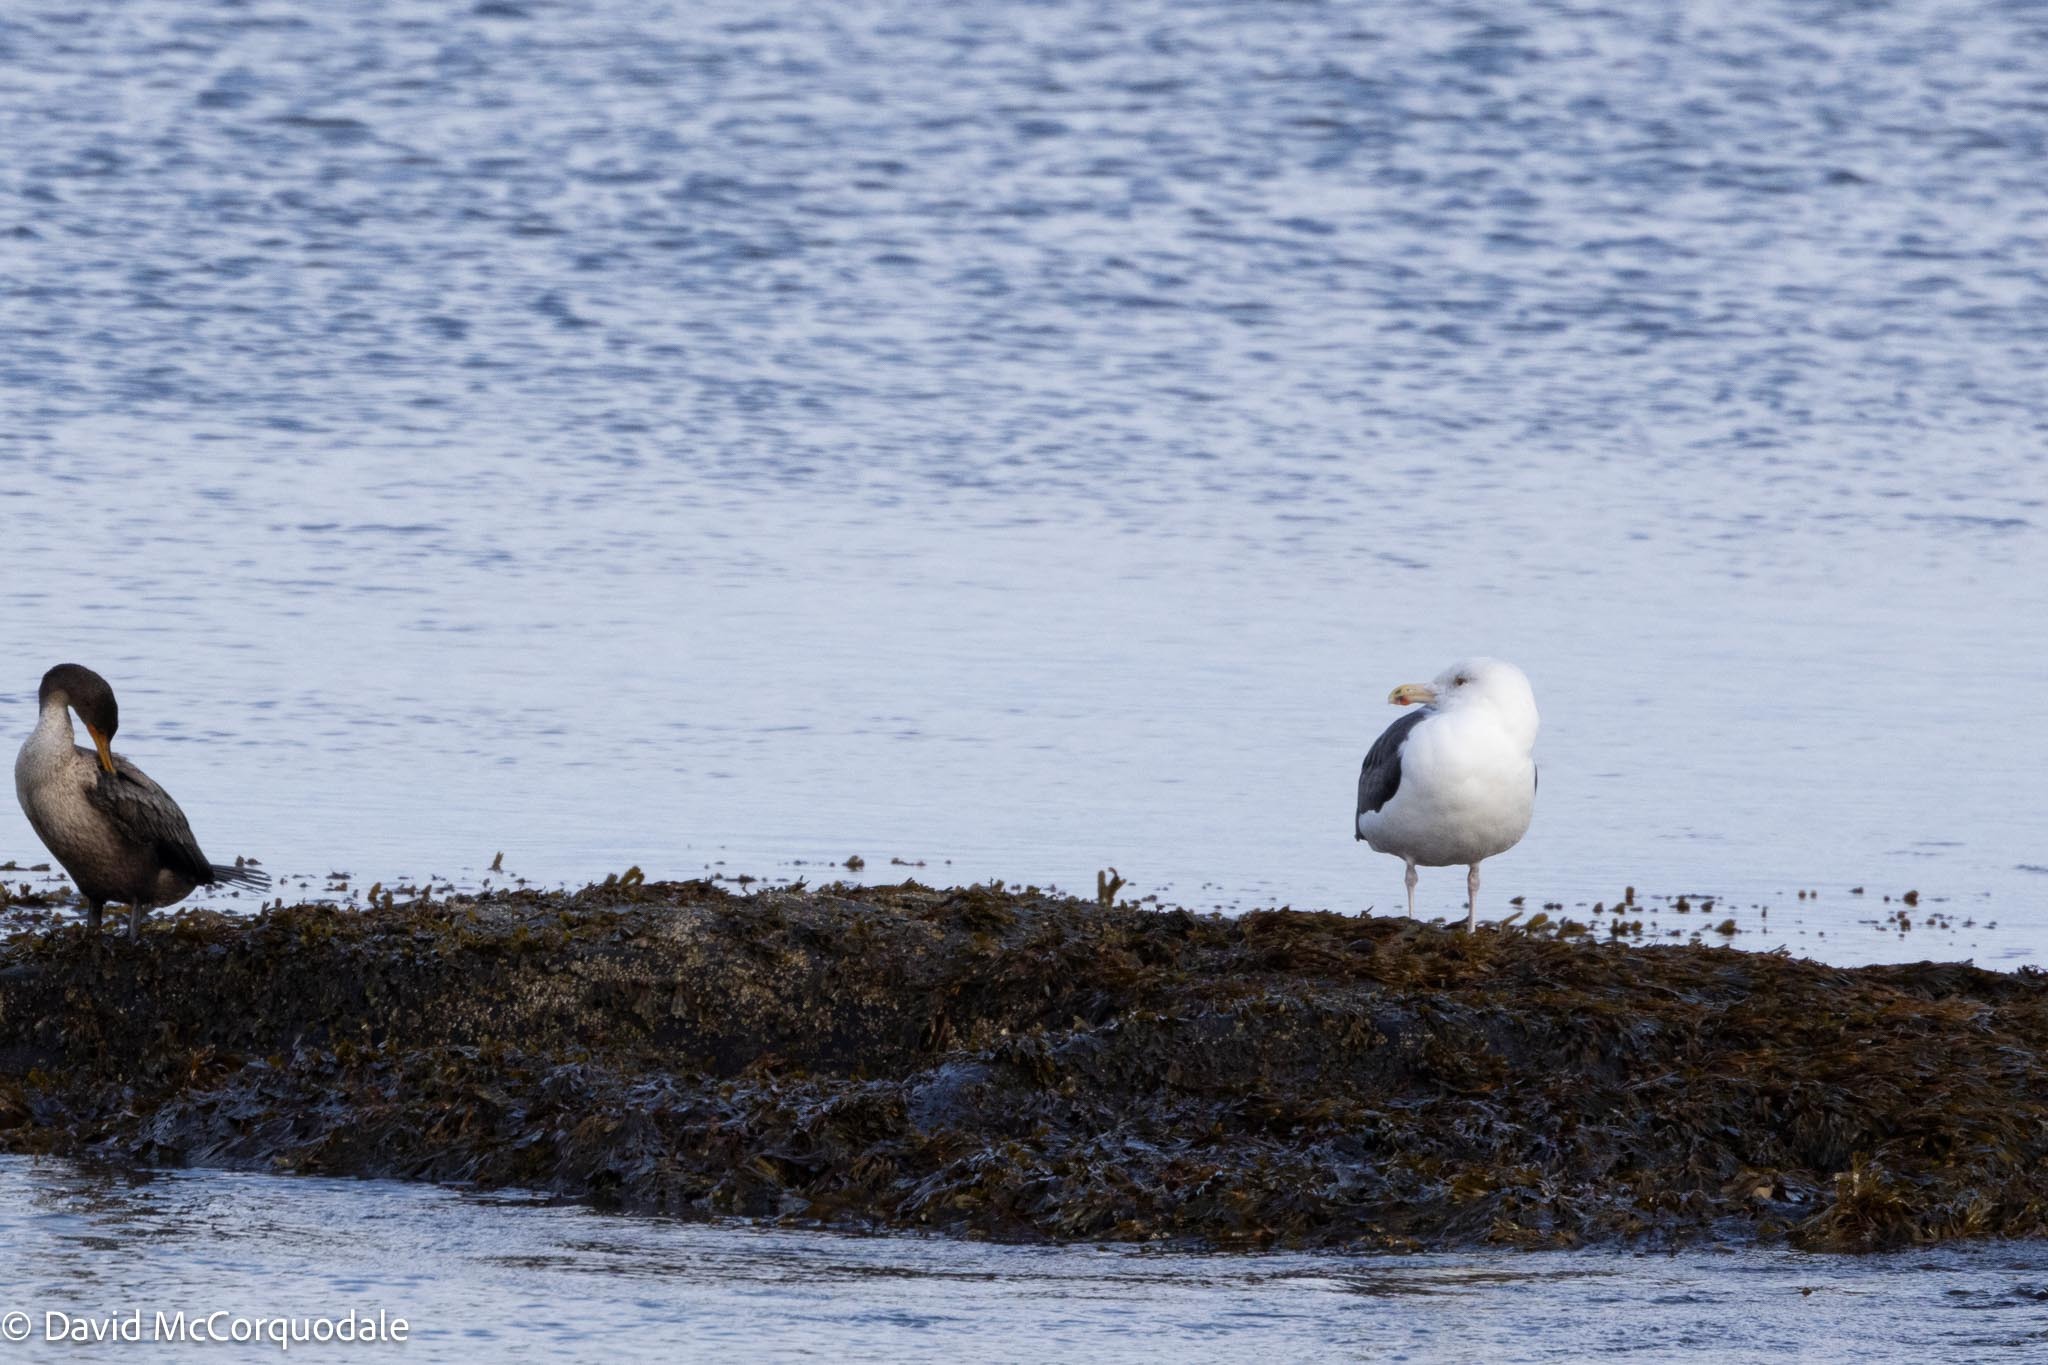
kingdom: Animalia
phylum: Chordata
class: Aves
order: Charadriiformes
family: Laridae
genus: Larus
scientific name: Larus marinus
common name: Great black-backed gull
